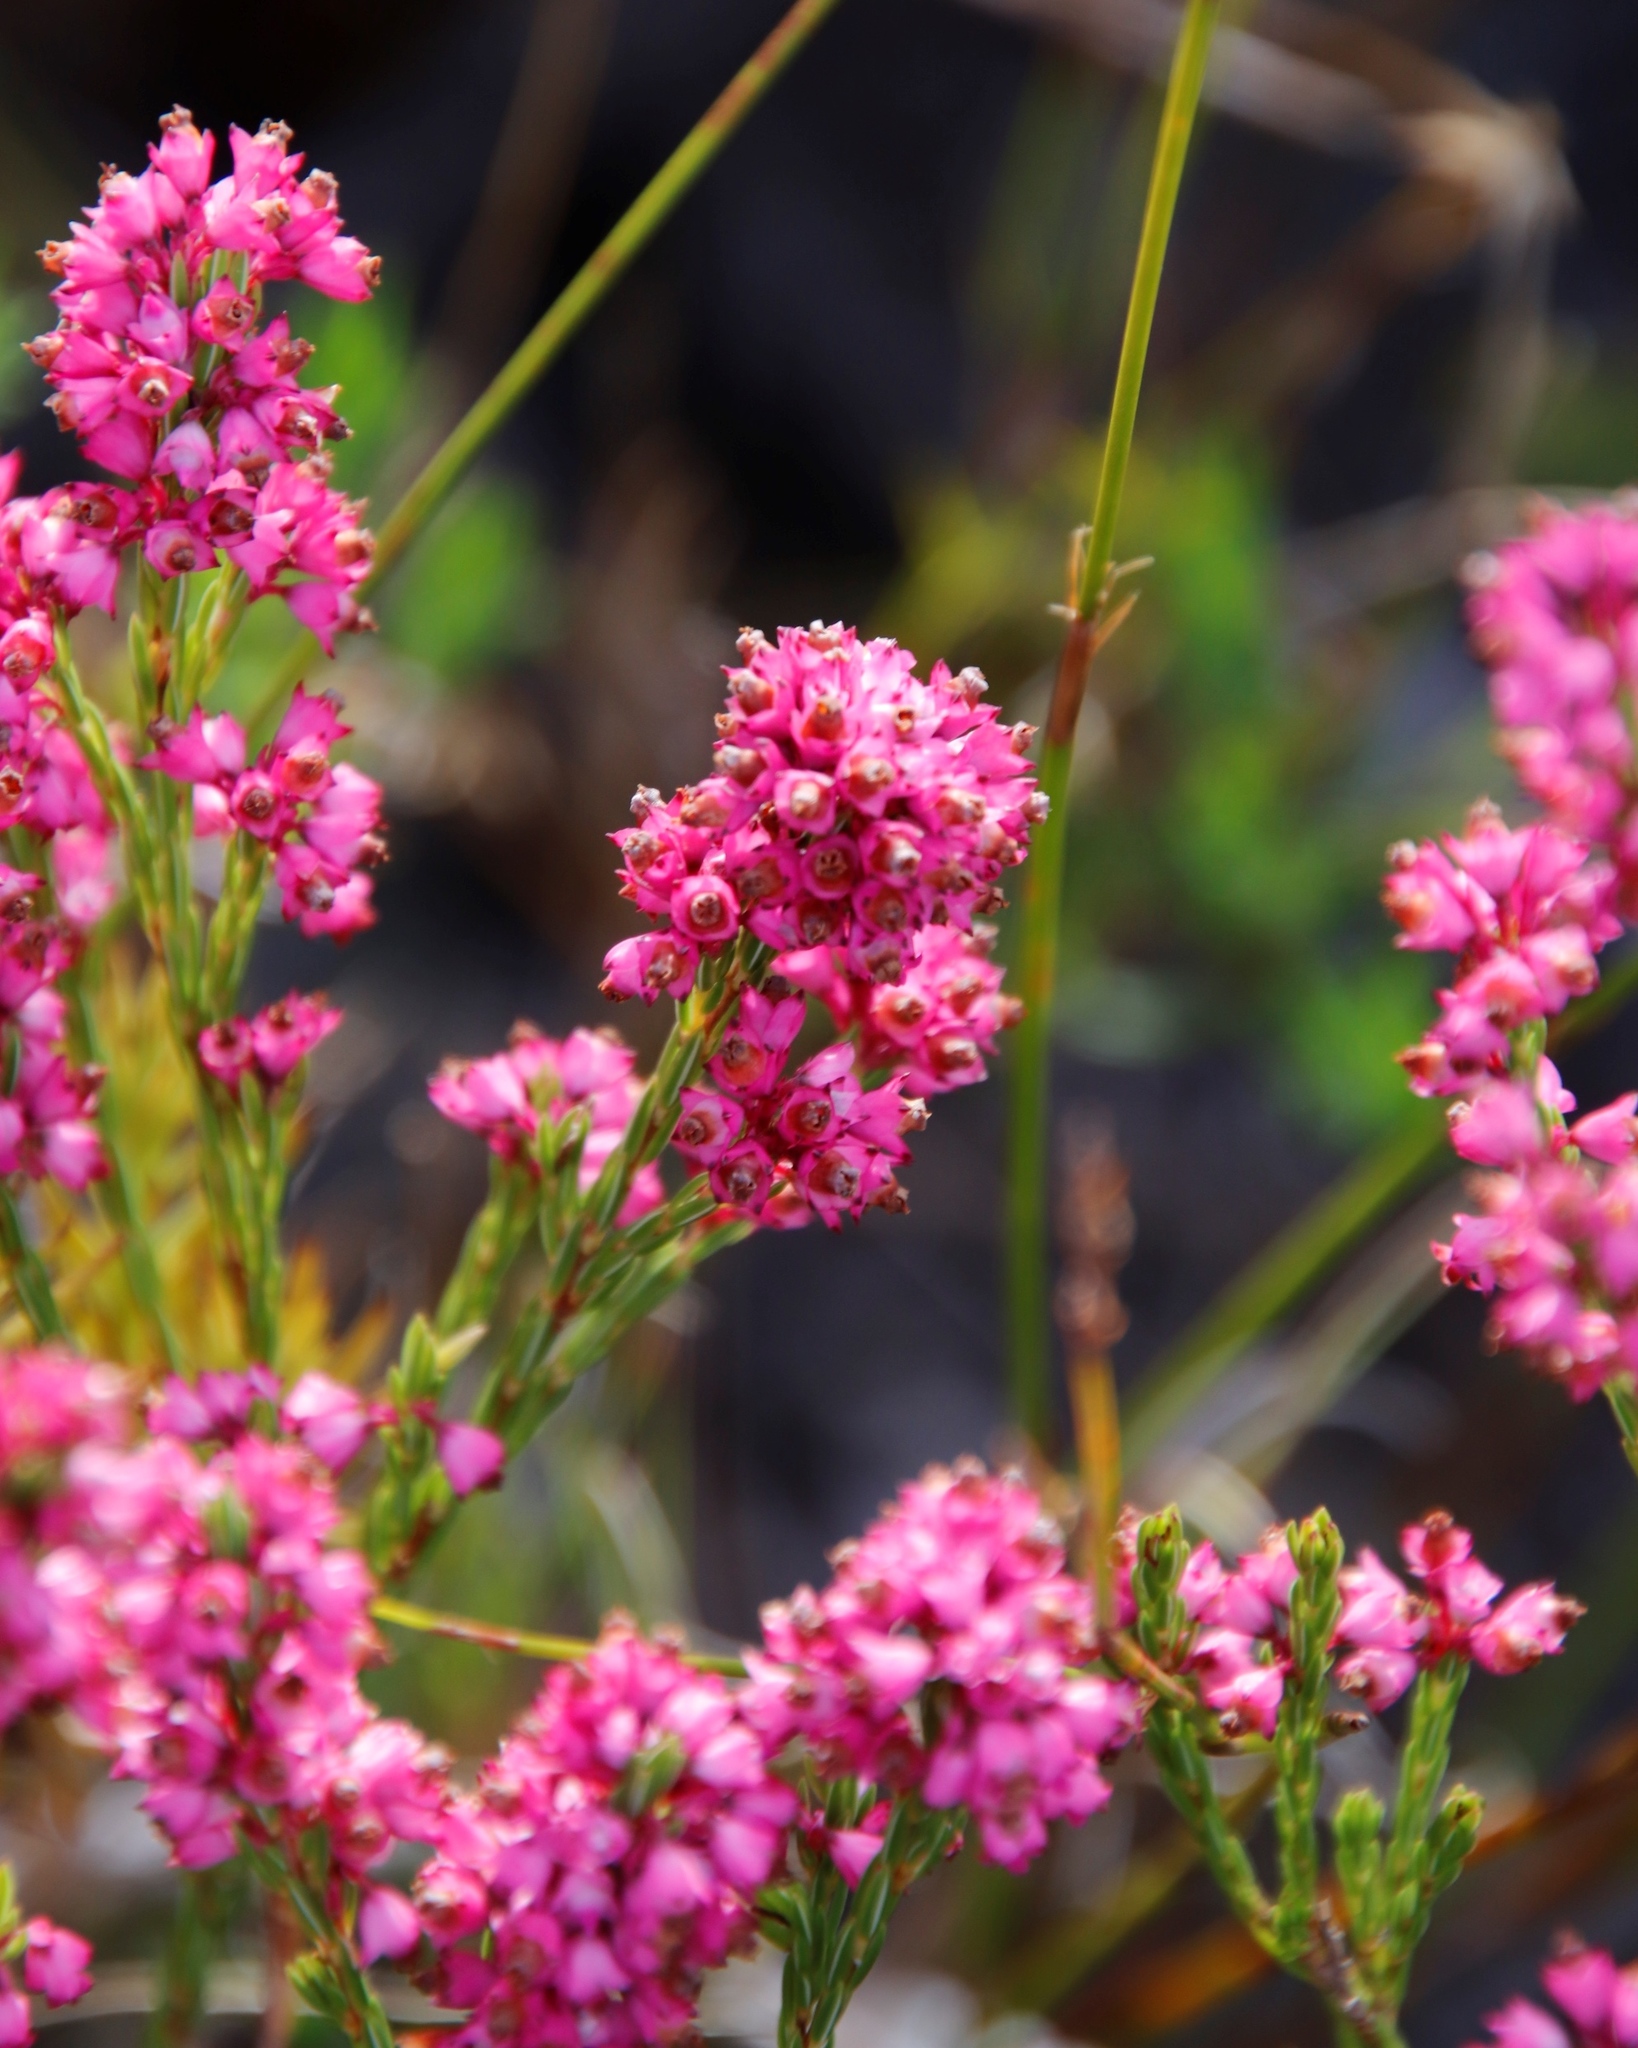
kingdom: Plantae
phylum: Tracheophyta
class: Magnoliopsida
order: Ericales
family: Ericaceae
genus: Erica
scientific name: Erica corifolia
